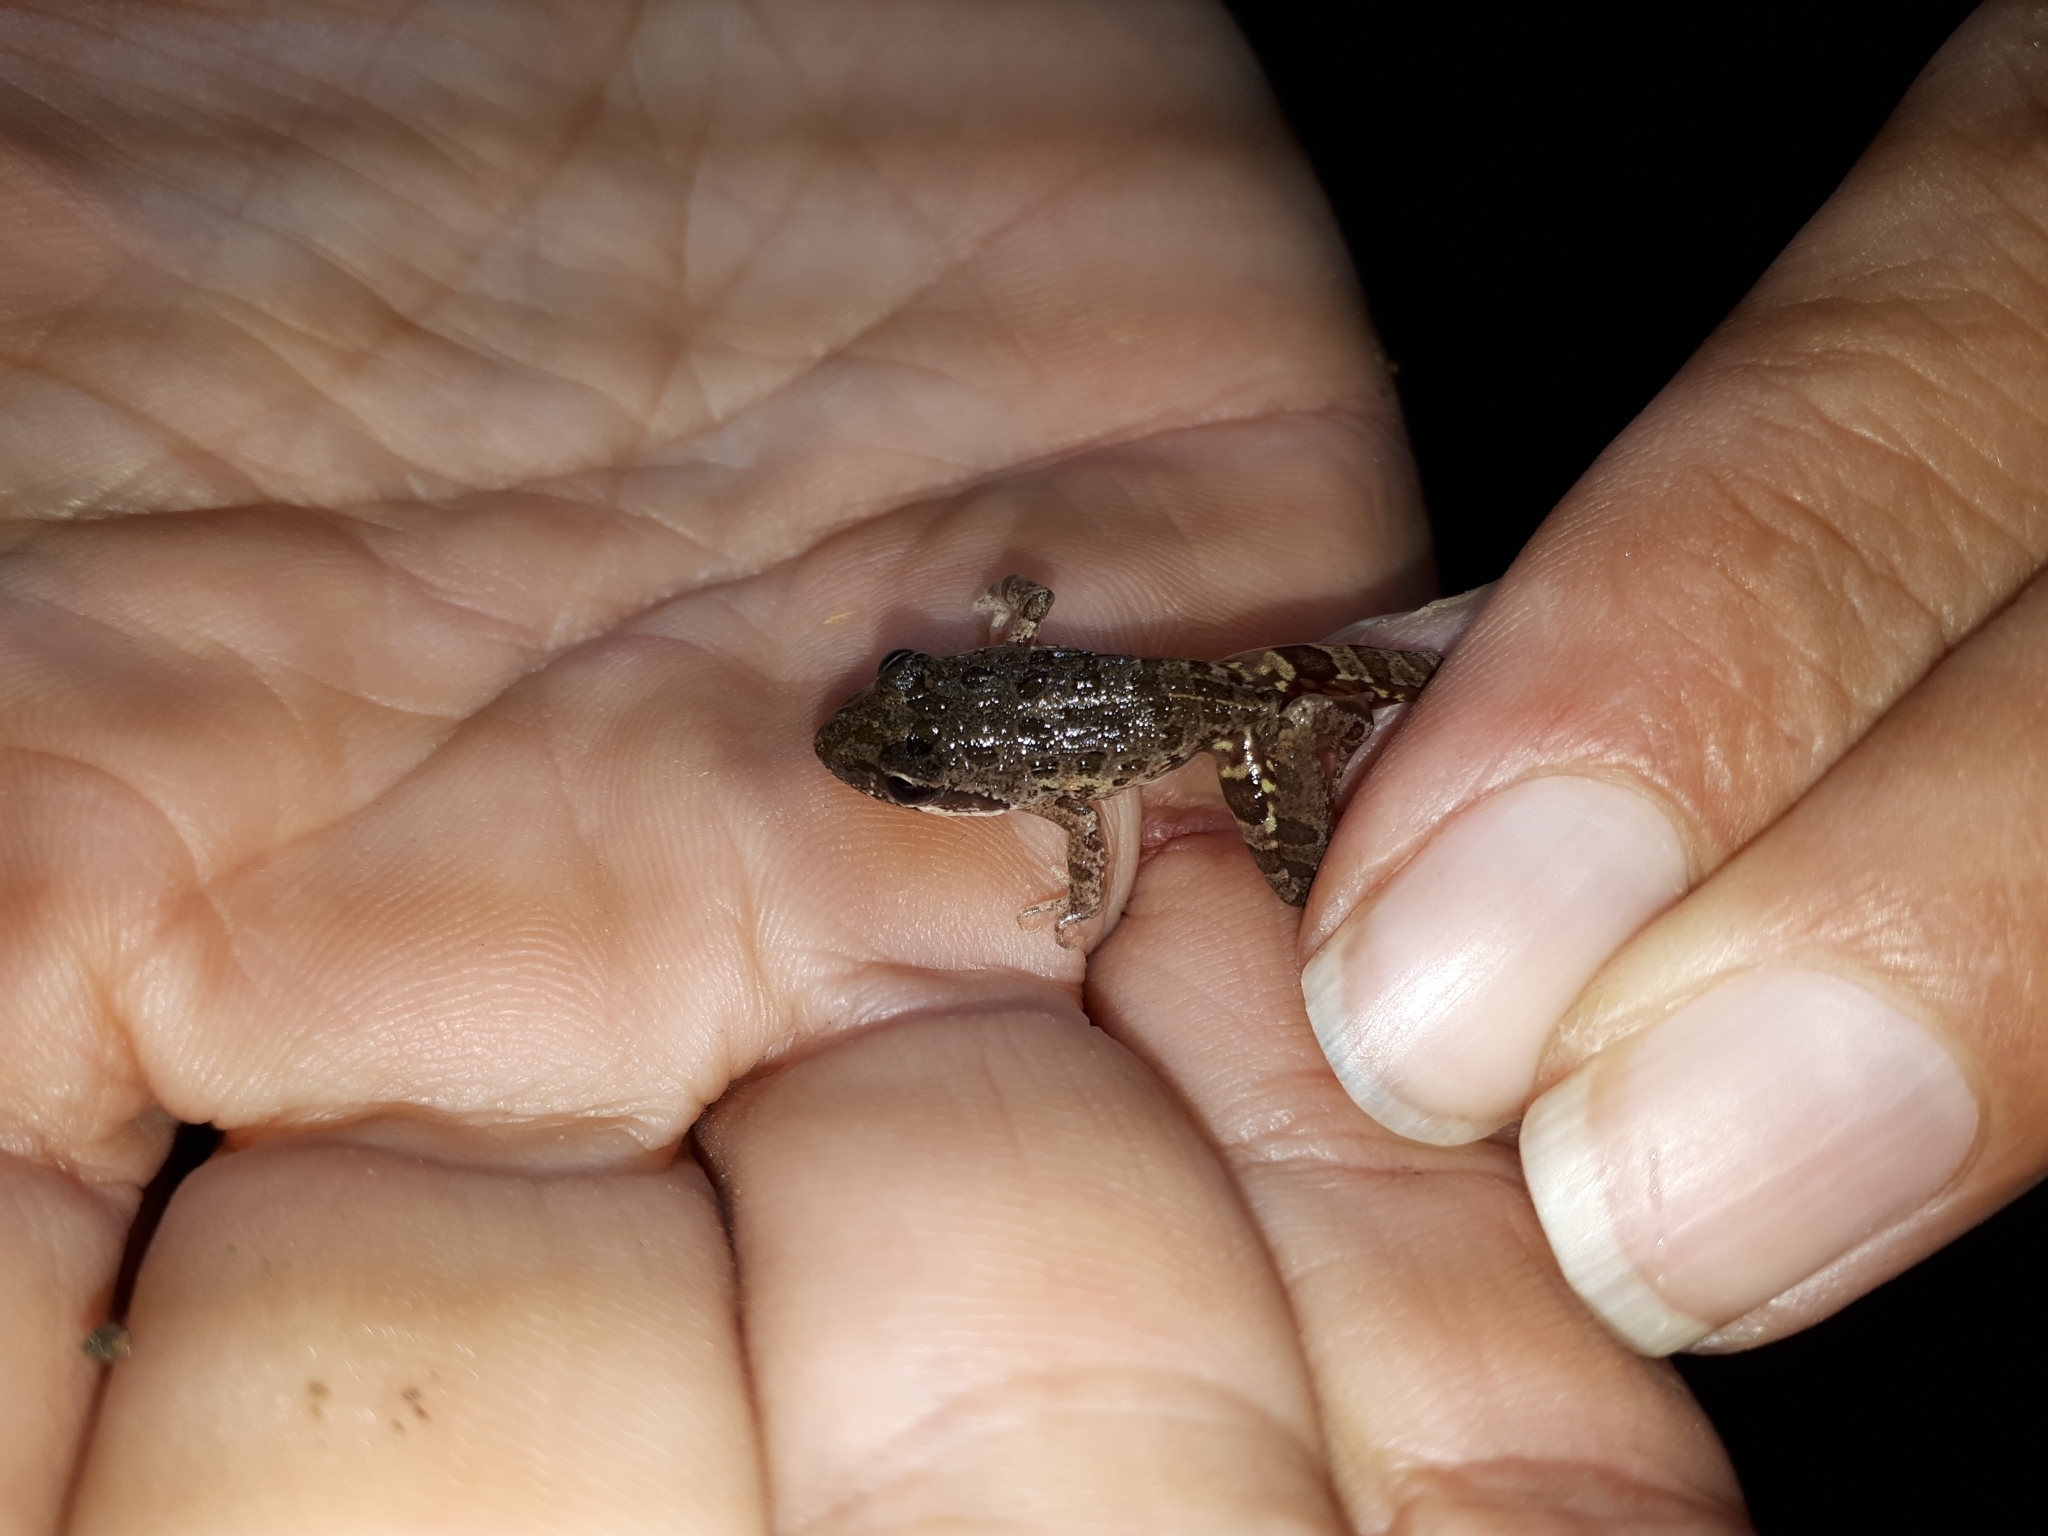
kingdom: Animalia
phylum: Chordata
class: Amphibia
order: Anura
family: Pyxicephalidae
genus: Strongylopus
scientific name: Strongylopus grayii
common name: Gray's stream frog
